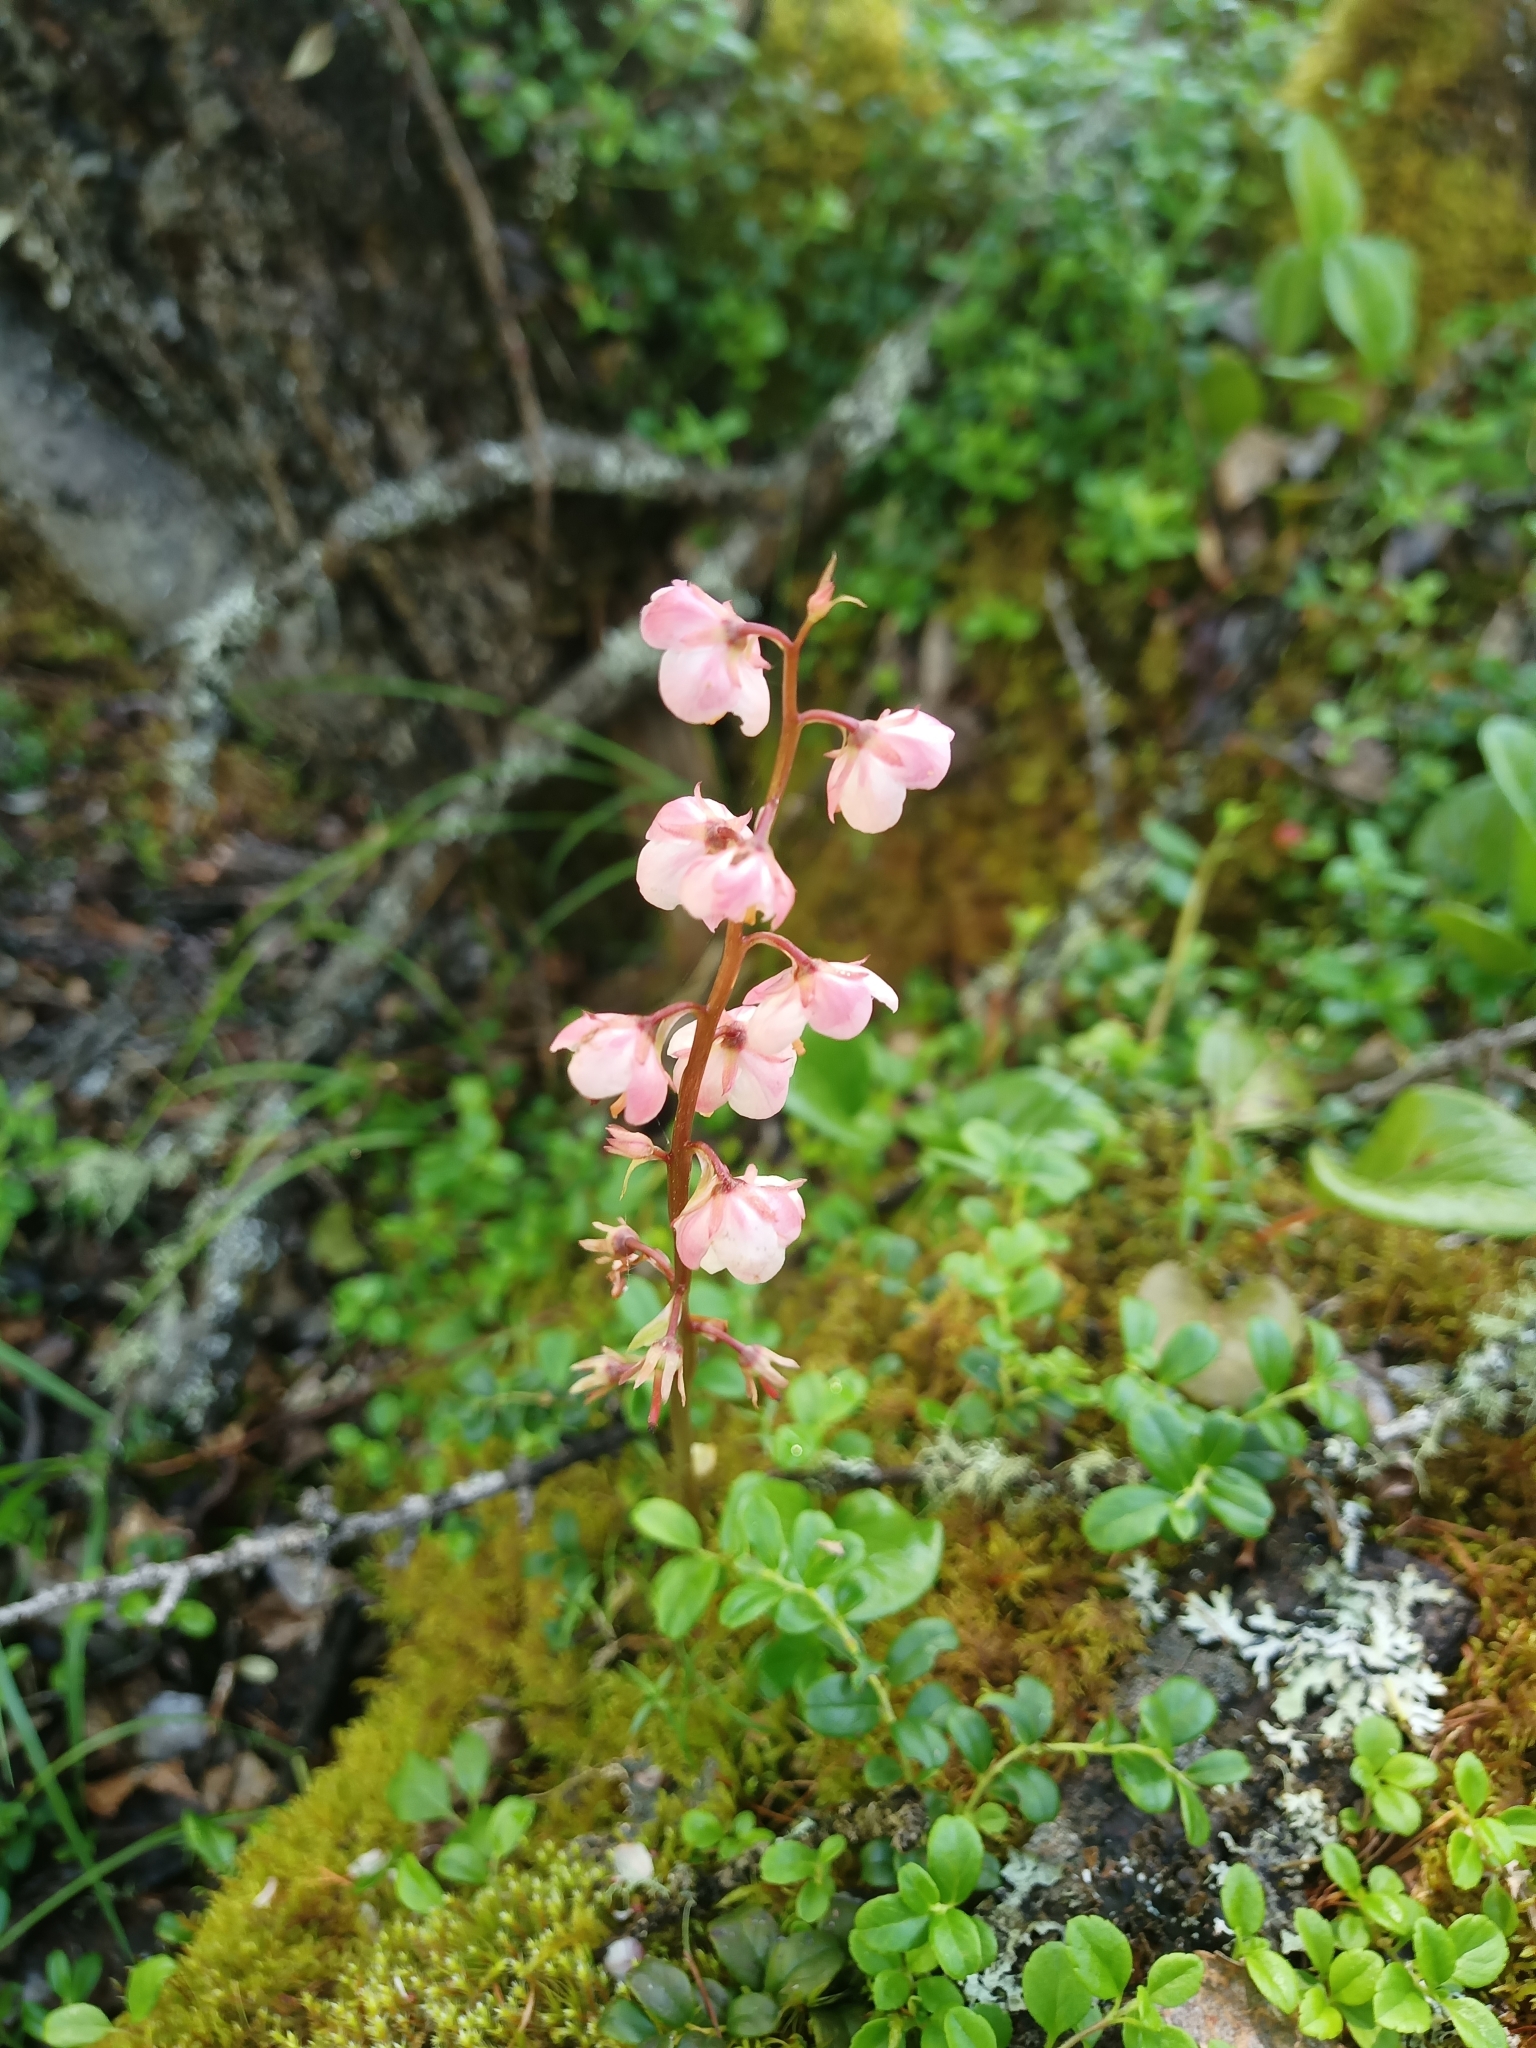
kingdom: Plantae
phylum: Tracheophyta
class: Magnoliopsida
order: Ericales
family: Ericaceae
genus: Pyrola
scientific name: Pyrola asarifolia
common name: Bog wintergreen
